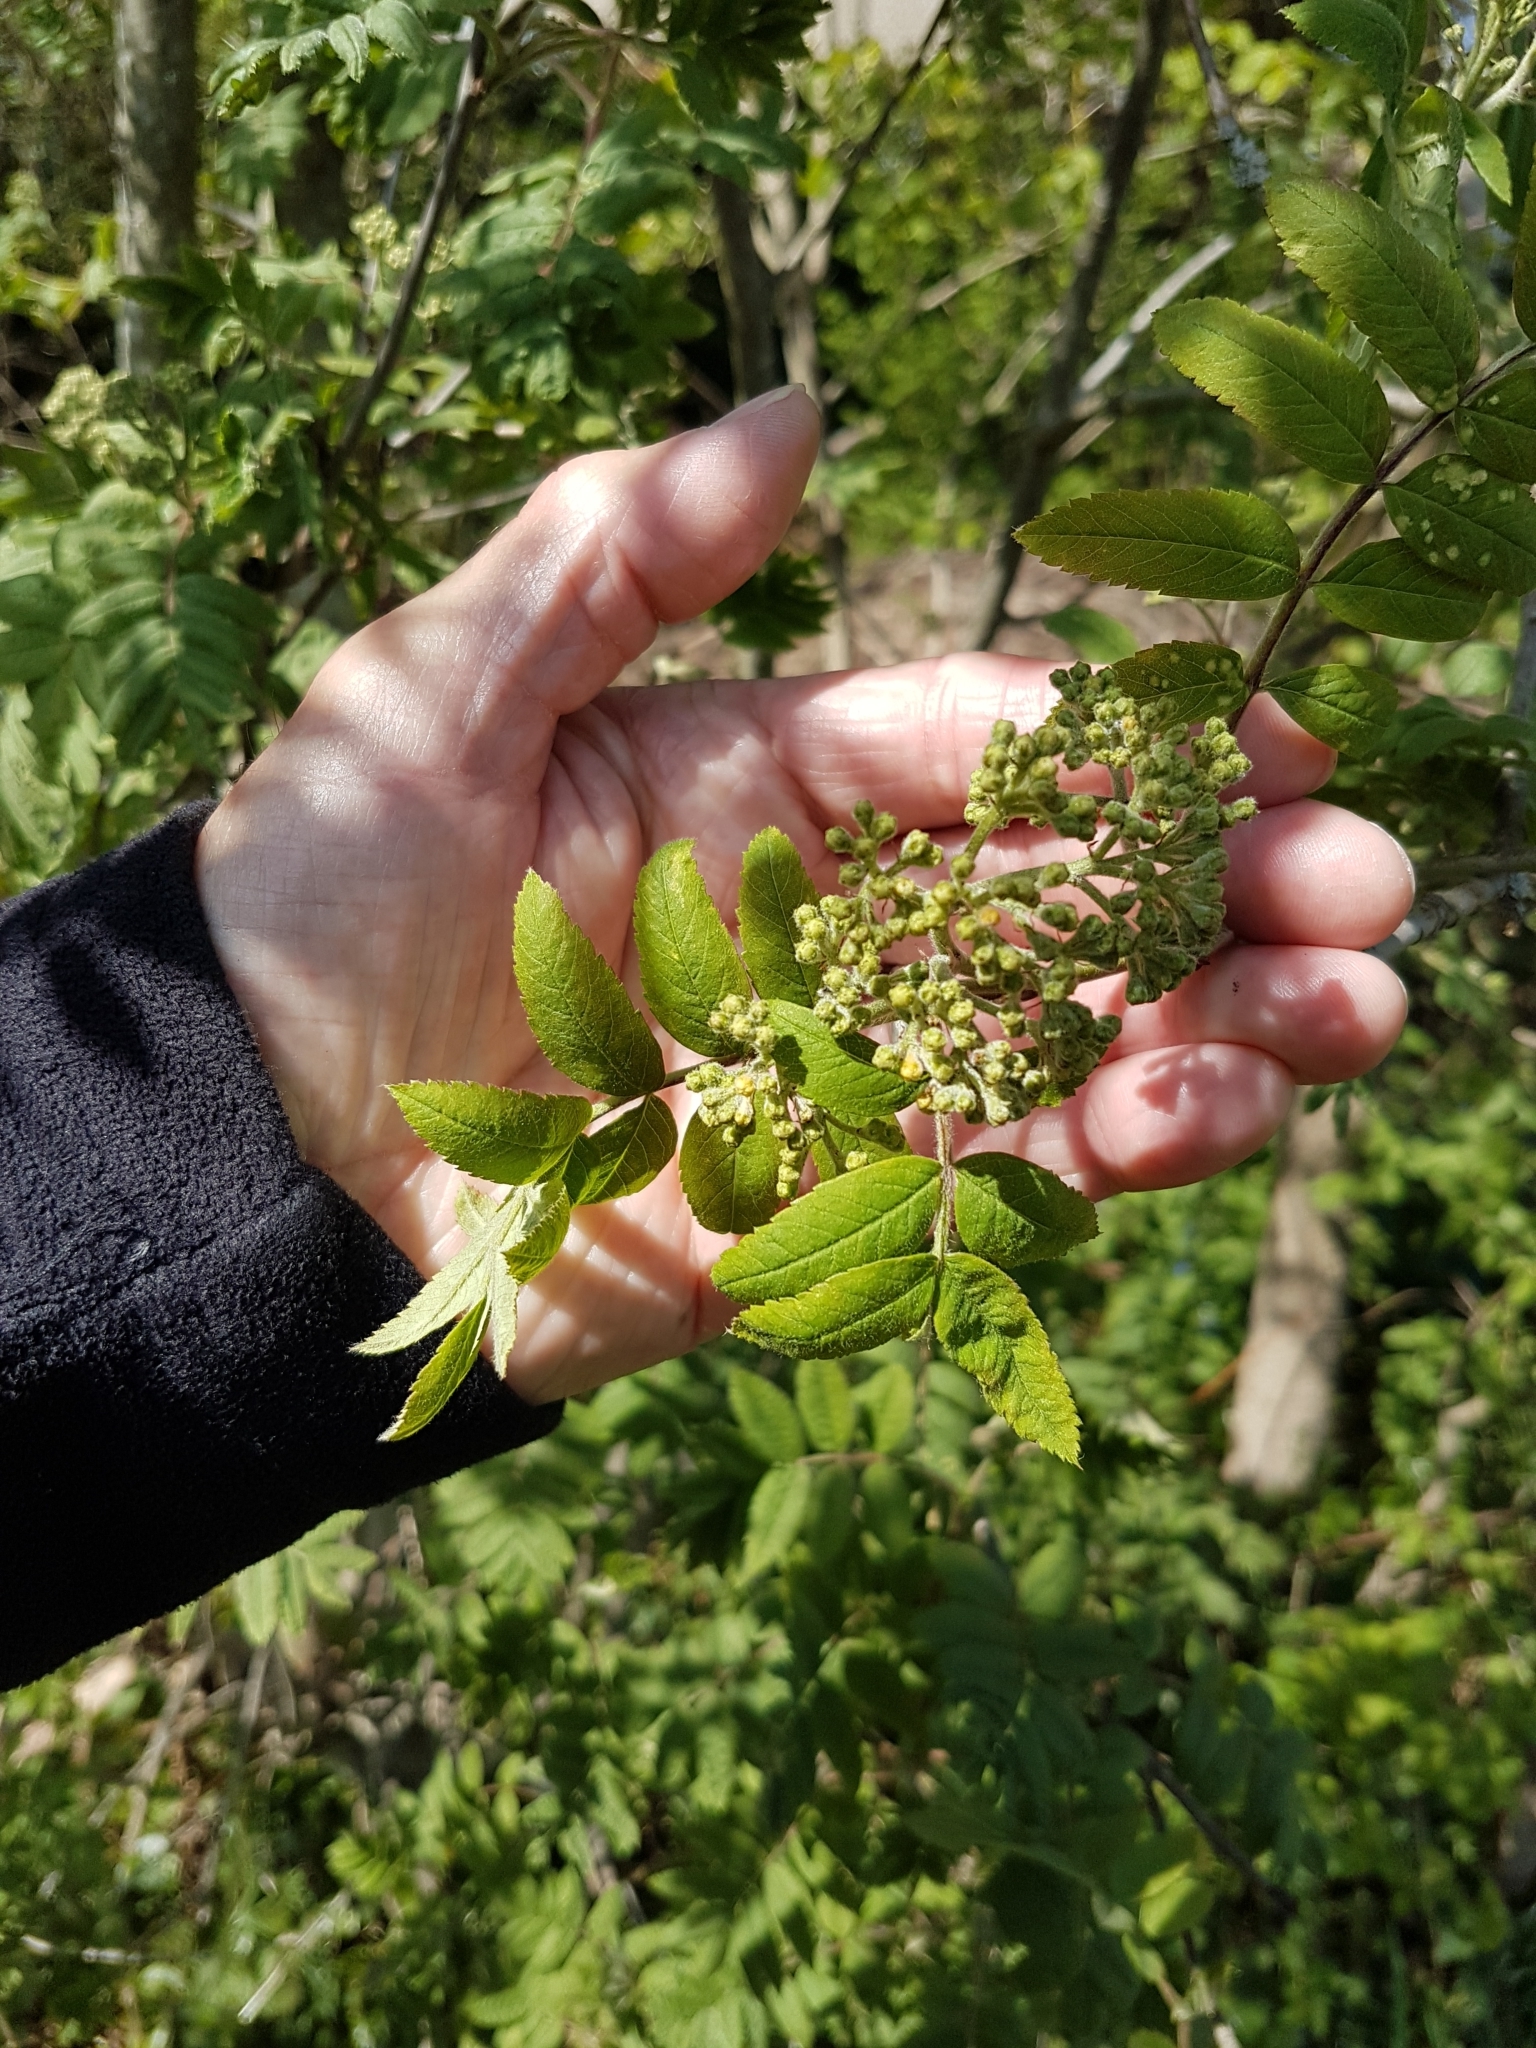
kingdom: Plantae
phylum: Tracheophyta
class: Magnoliopsida
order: Rosales
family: Rosaceae
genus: Sorbus
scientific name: Sorbus aucuparia
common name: Rowan
